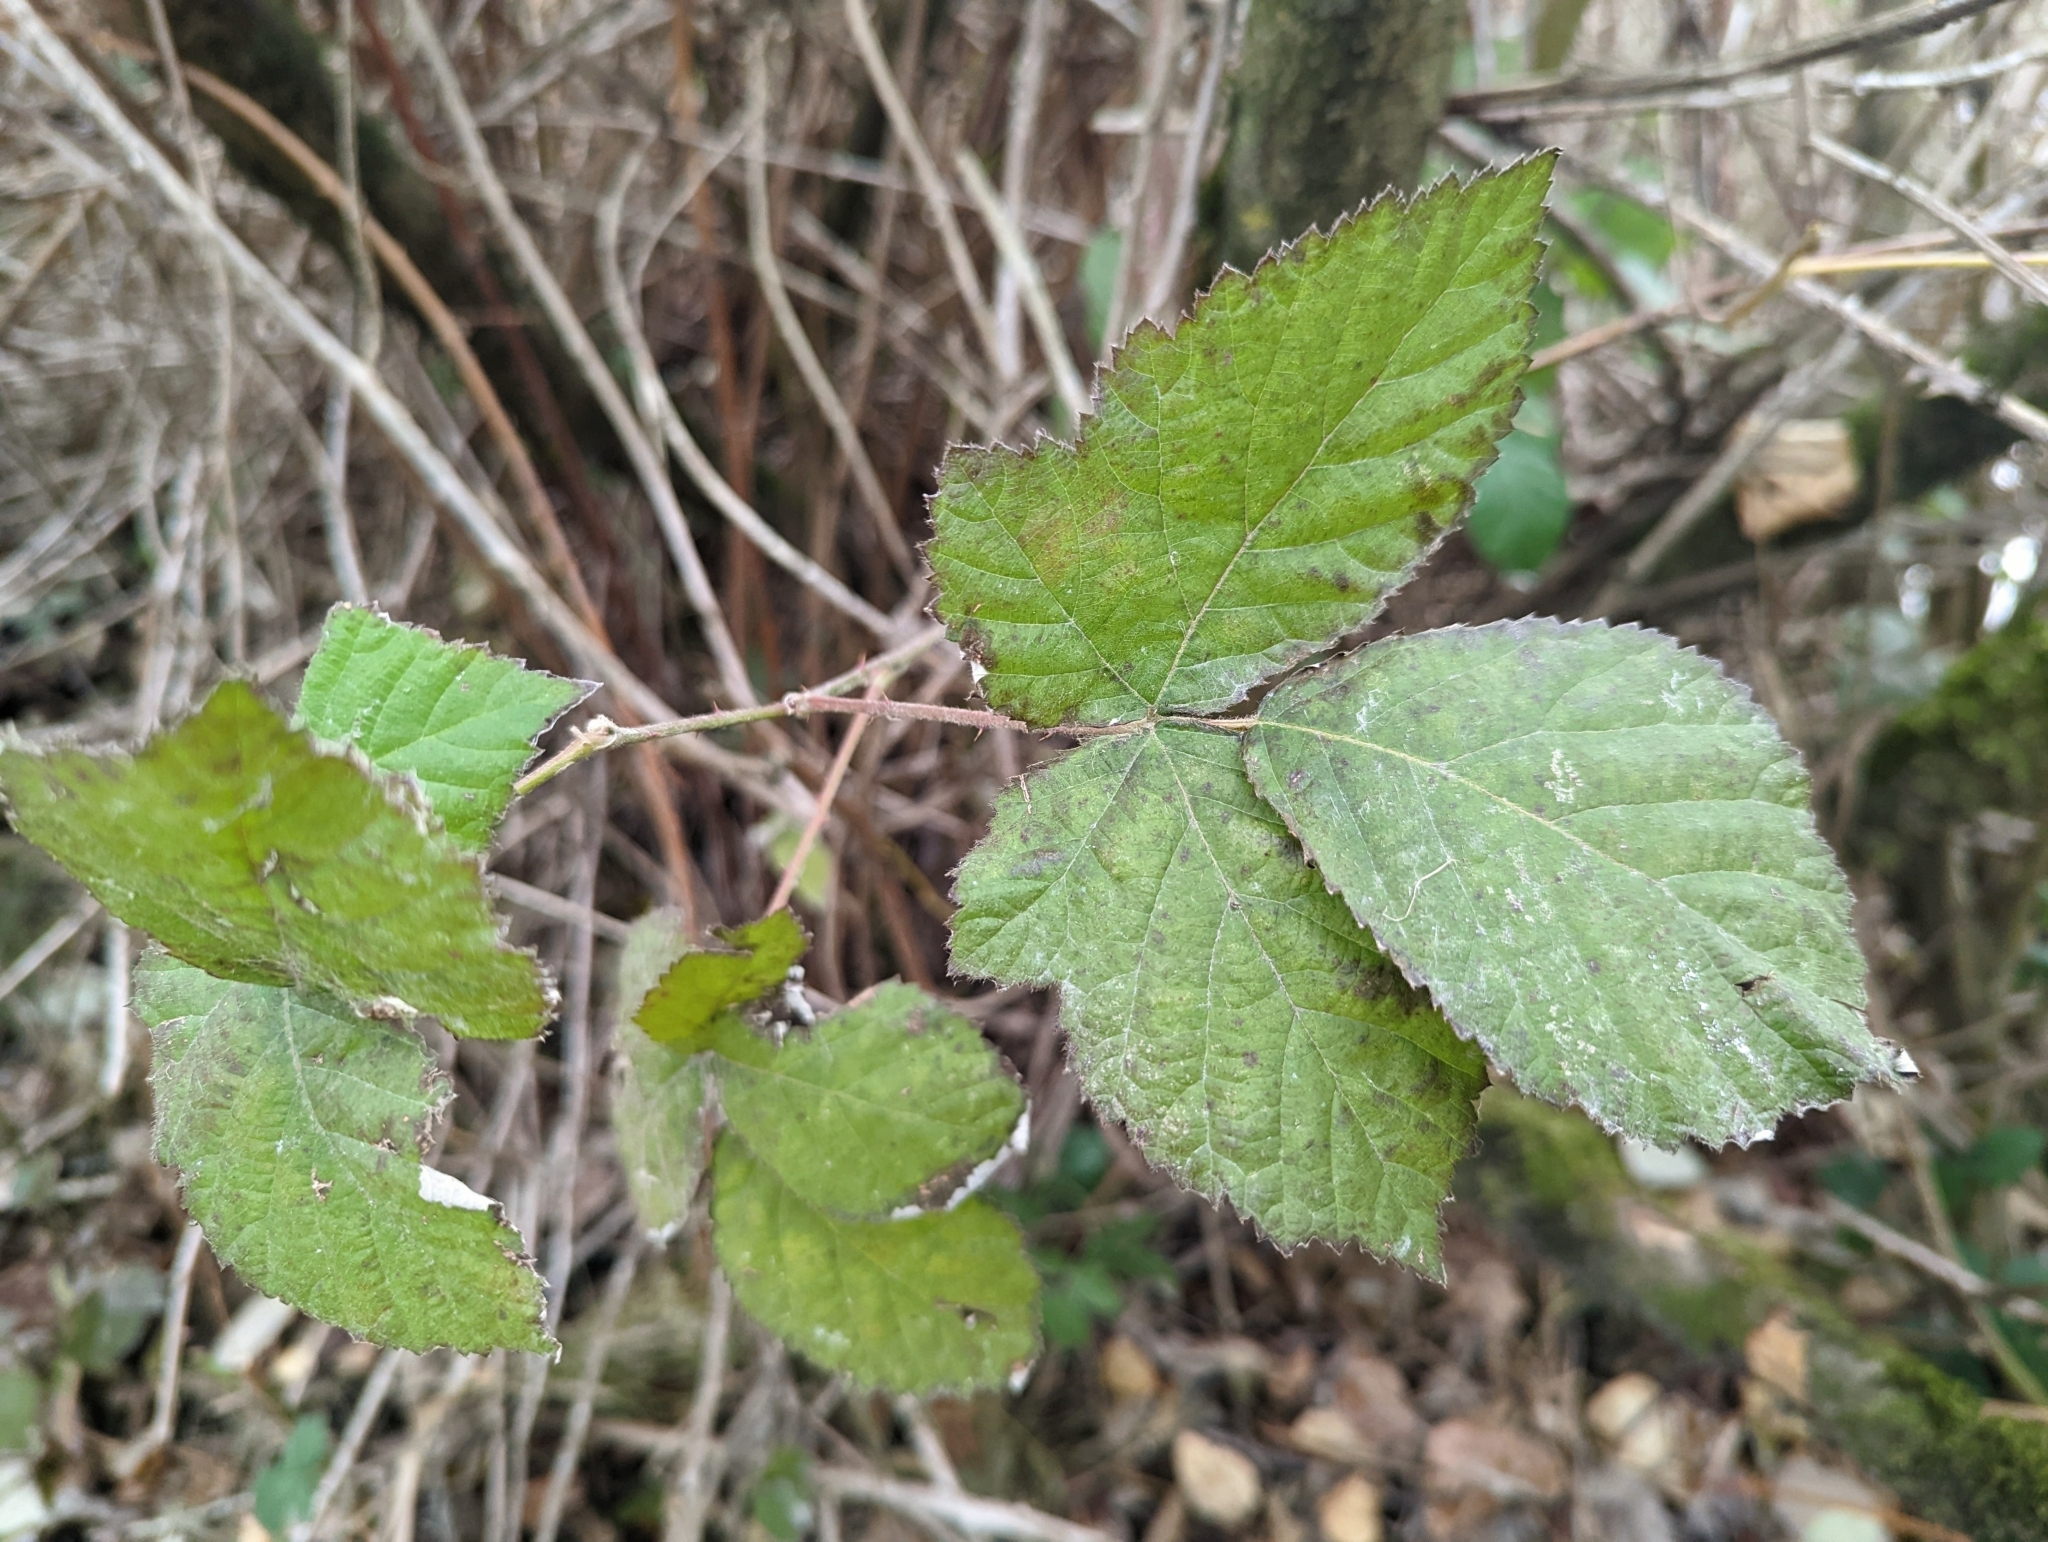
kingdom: Plantae
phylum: Tracheophyta
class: Magnoliopsida
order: Rosales
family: Rosaceae
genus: Rubus
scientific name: Rubus spectabilis
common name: Salmonberry
